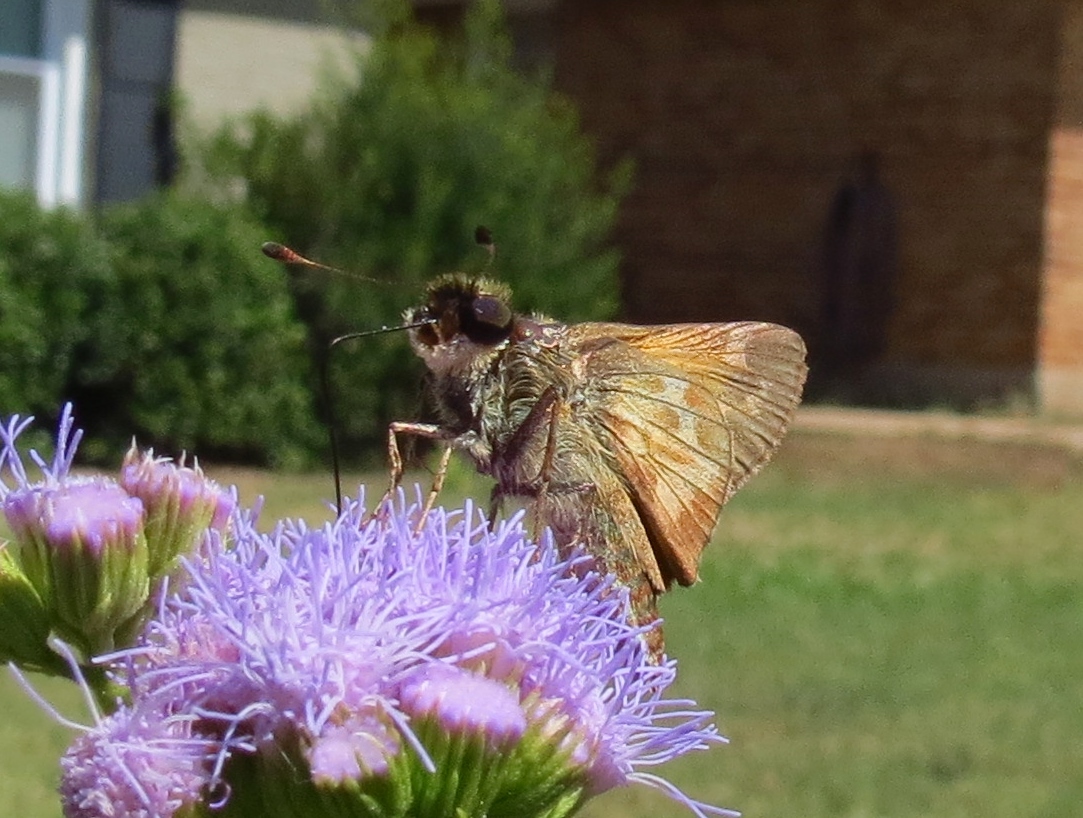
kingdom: Animalia
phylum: Arthropoda
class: Insecta
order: Lepidoptera
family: Hesperiidae
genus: Atalopedes
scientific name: Atalopedes
